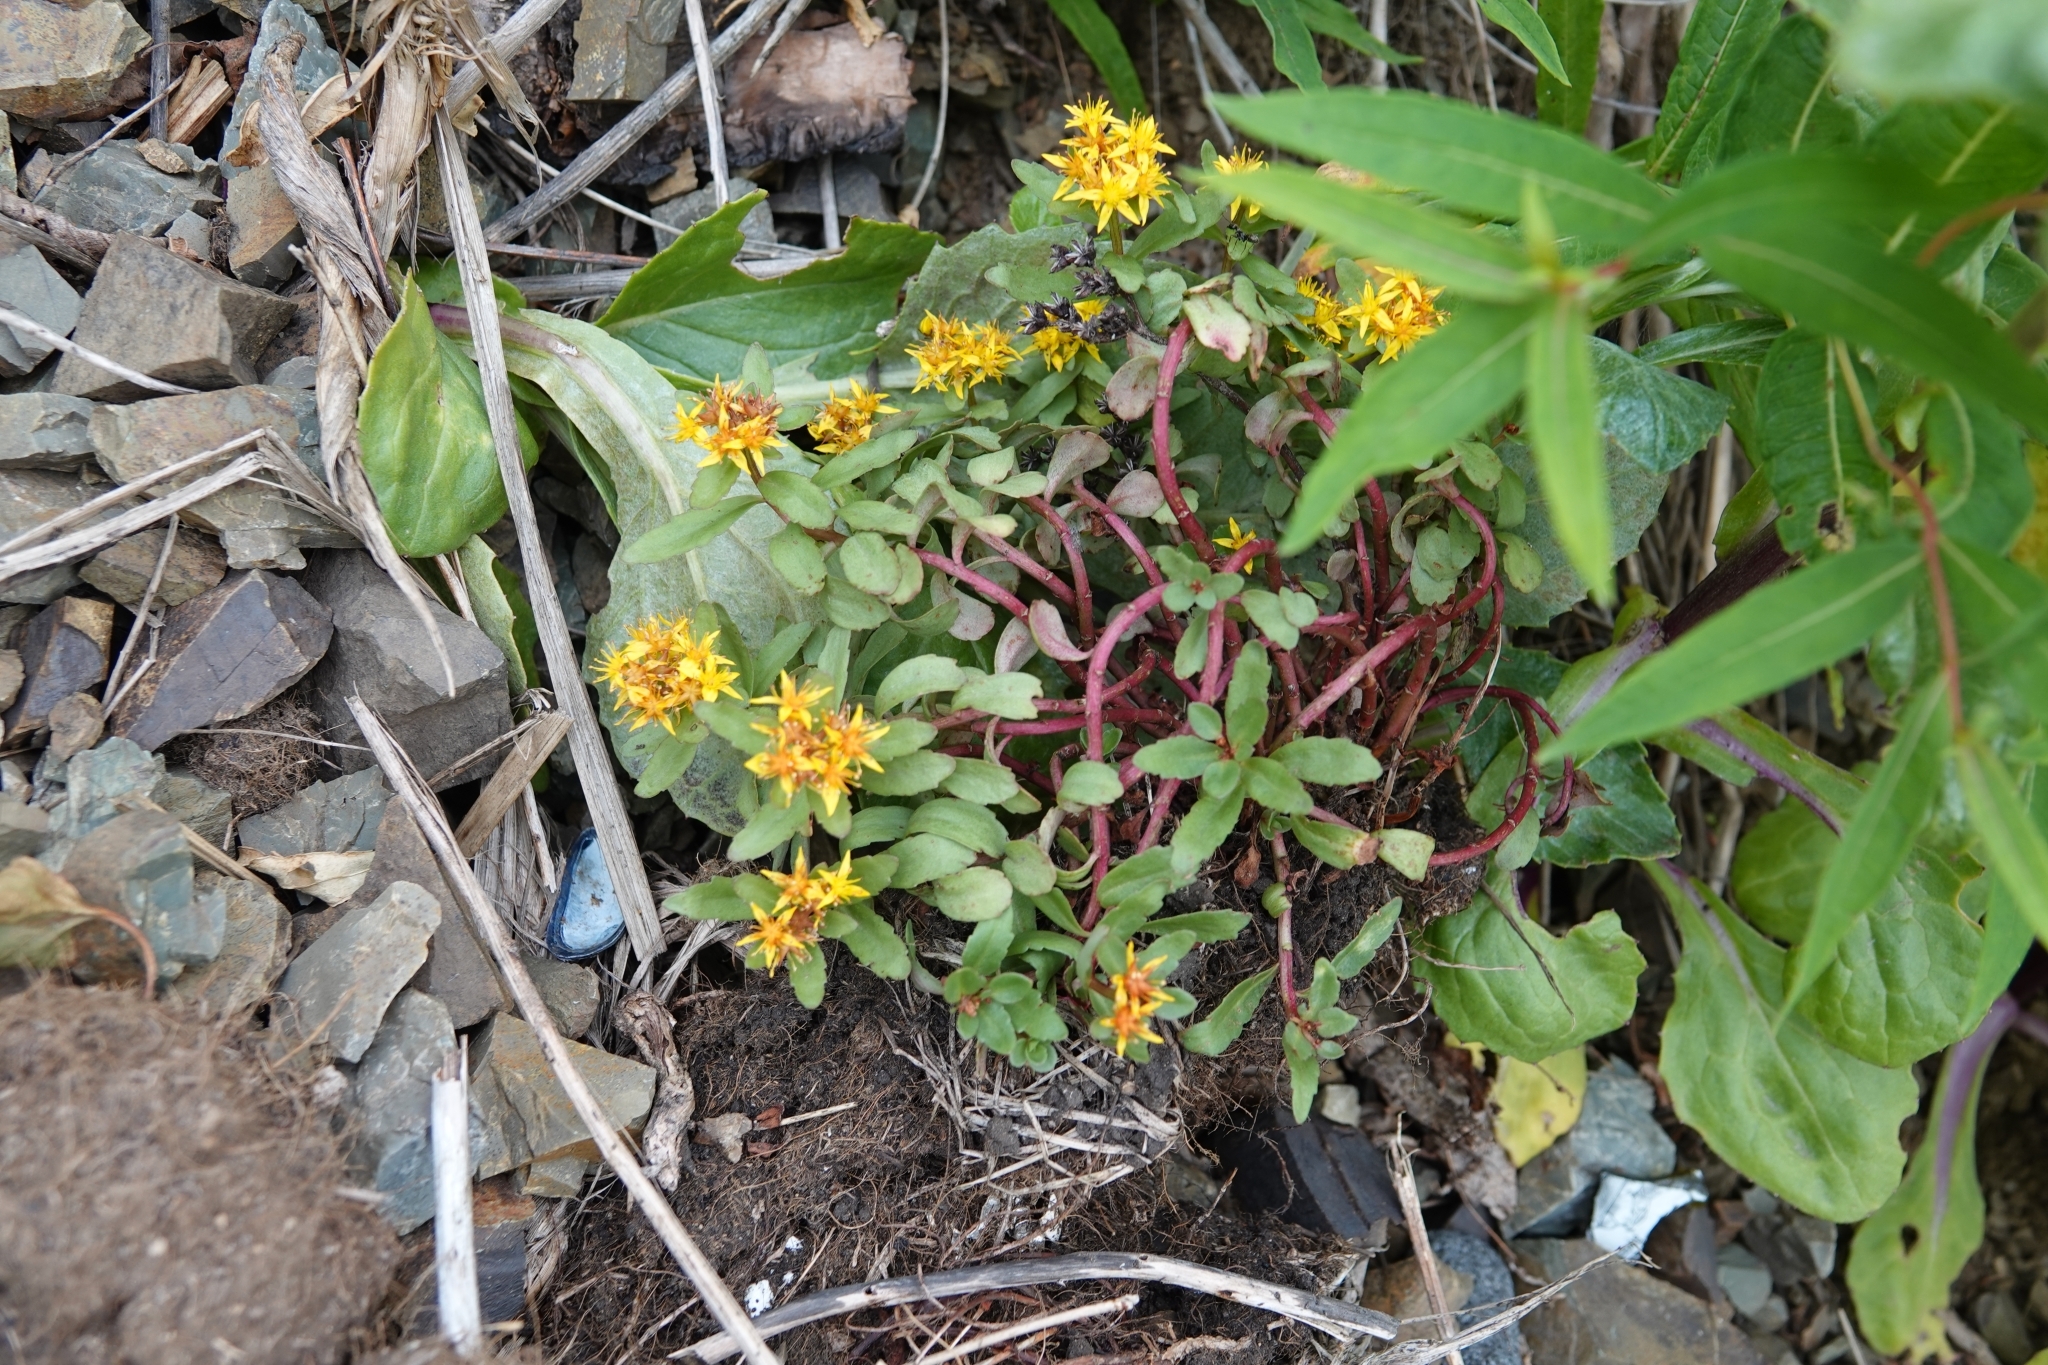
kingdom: Plantae
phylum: Tracheophyta
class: Magnoliopsida
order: Saxifragales
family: Crassulaceae
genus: Phedimus
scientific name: Phedimus kamtschaticus
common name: Orange stonecrop
